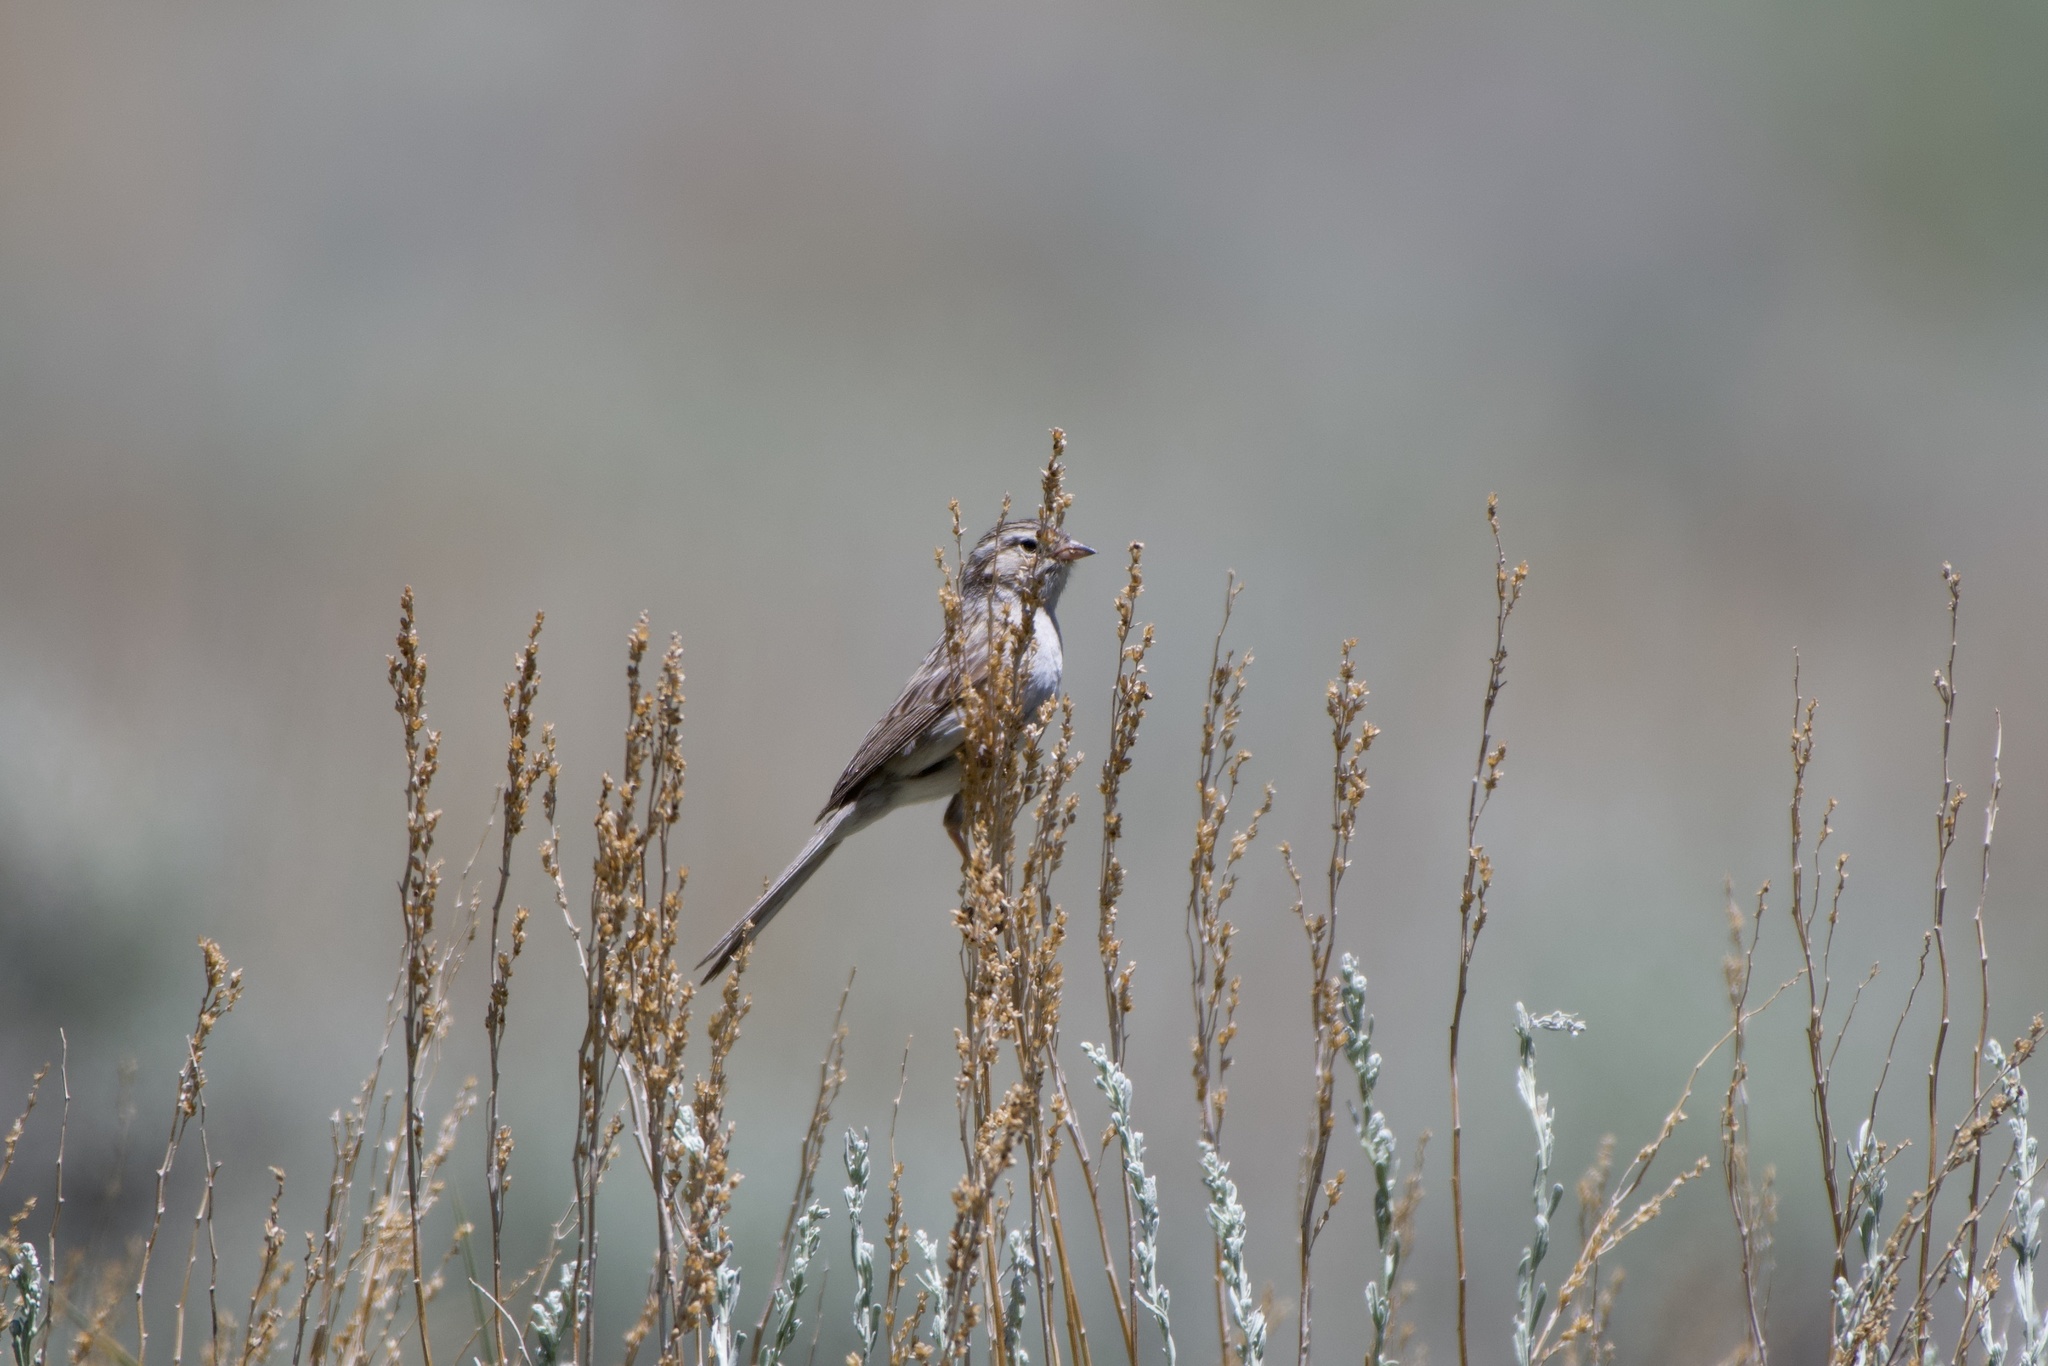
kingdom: Animalia
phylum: Chordata
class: Aves
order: Passeriformes
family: Passerellidae
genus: Spizella
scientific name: Spizella breweri
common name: Brewer's sparrow
